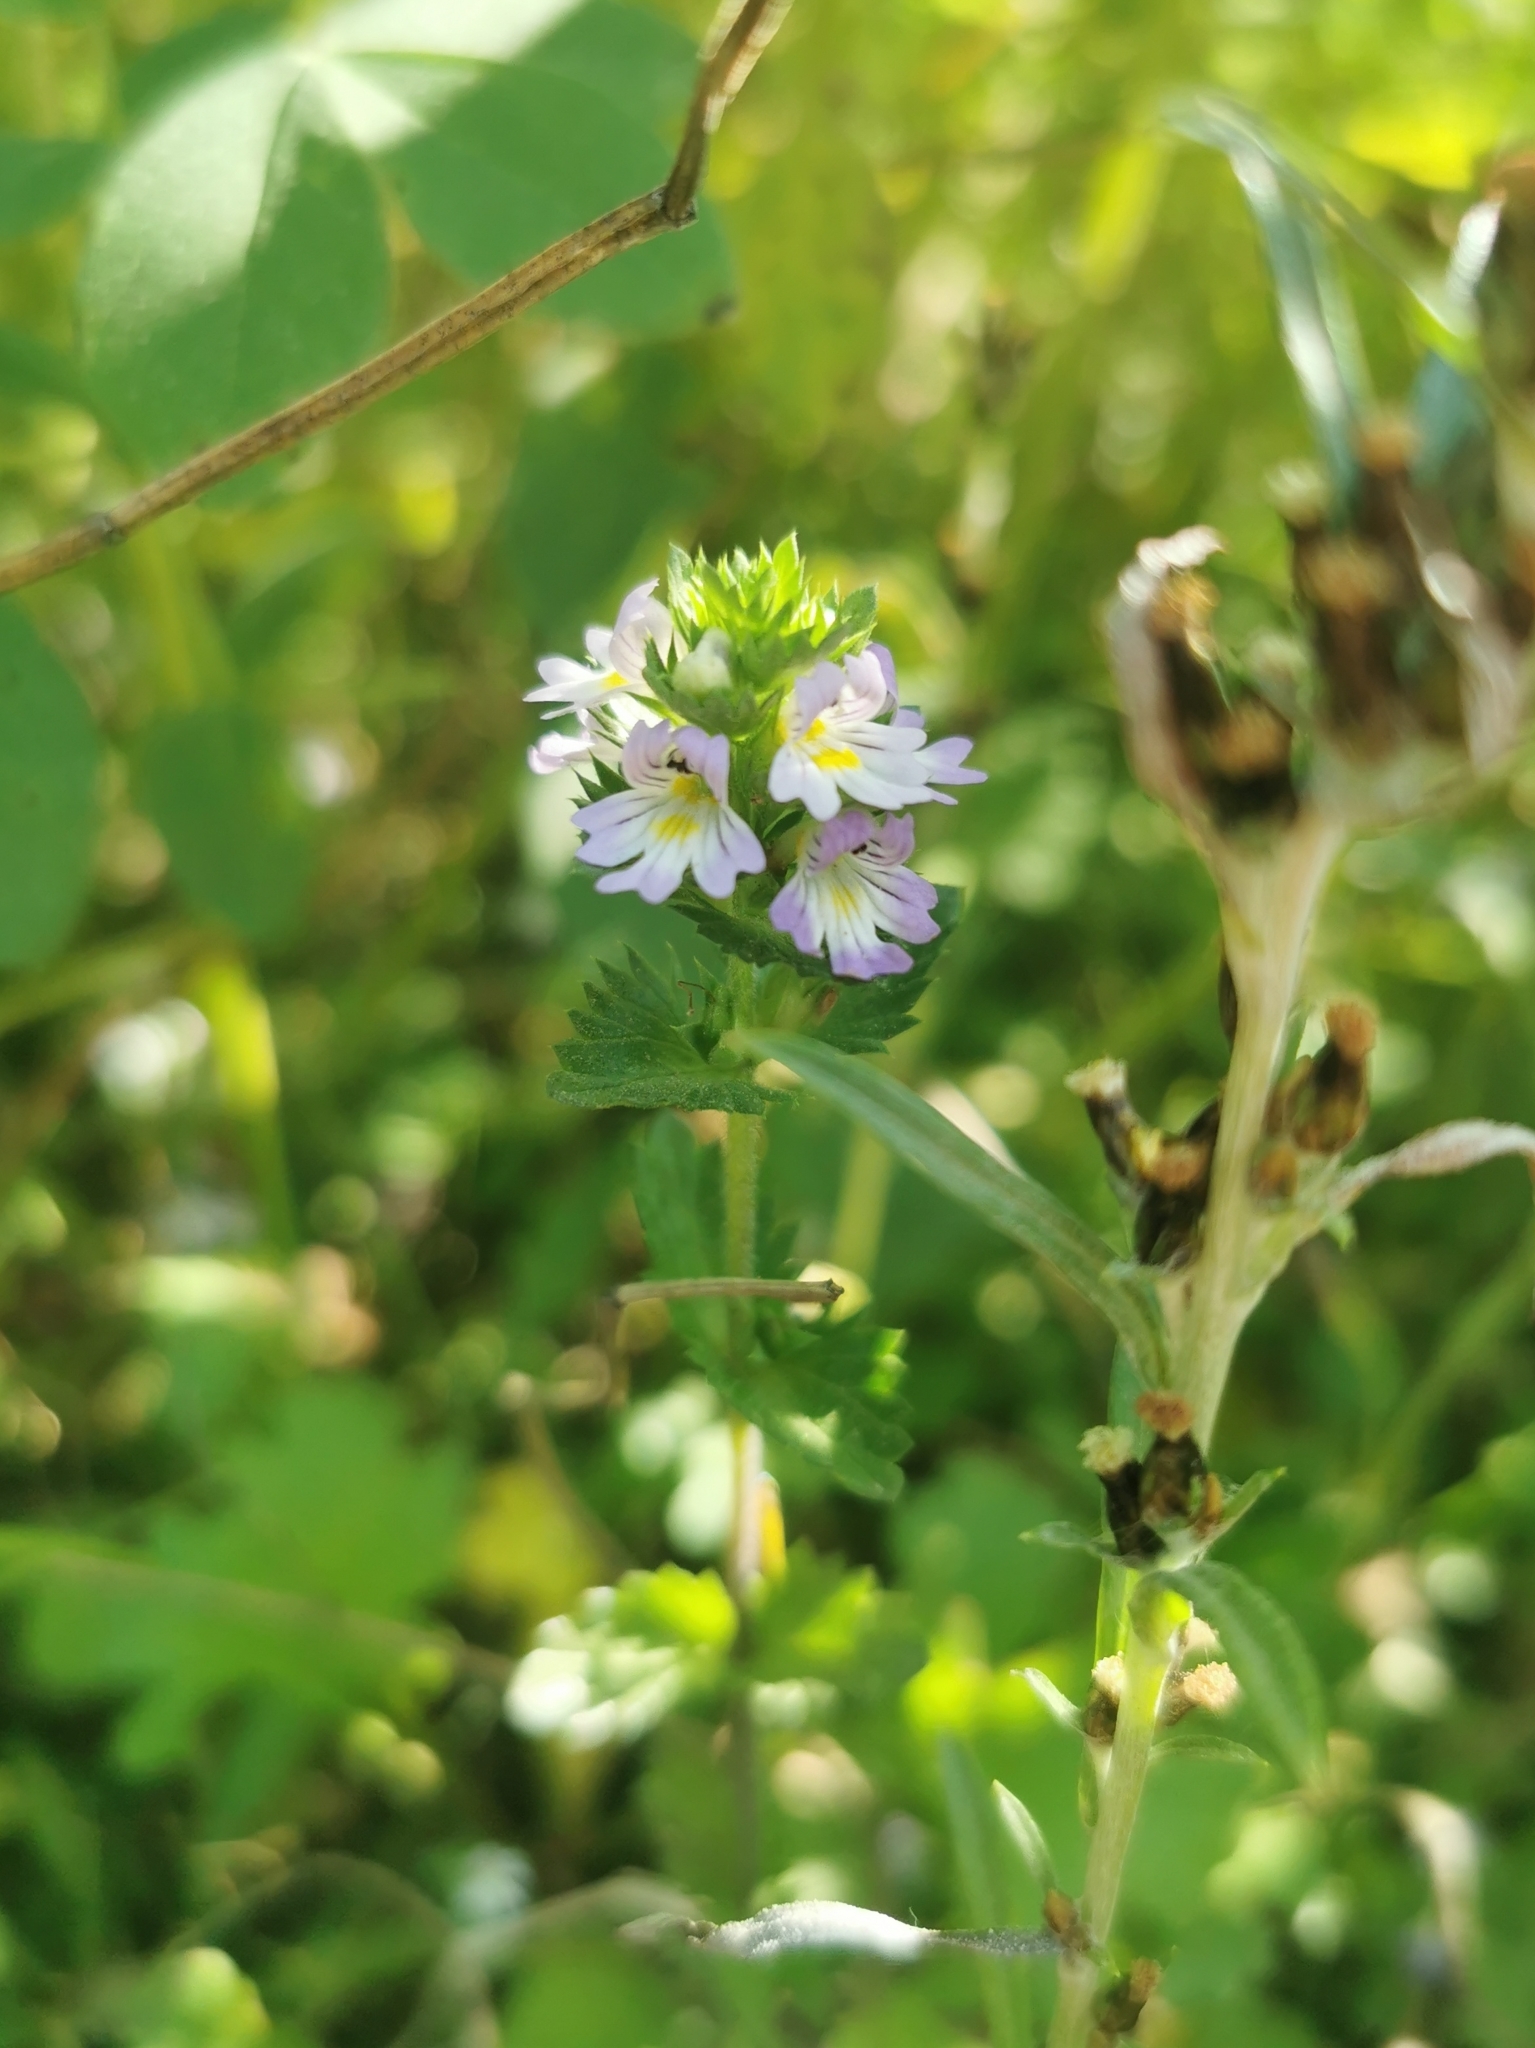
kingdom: Plantae
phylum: Tracheophyta
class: Magnoliopsida
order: Lamiales
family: Orobanchaceae
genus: Euphrasia
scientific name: Euphrasia maximowiczii
